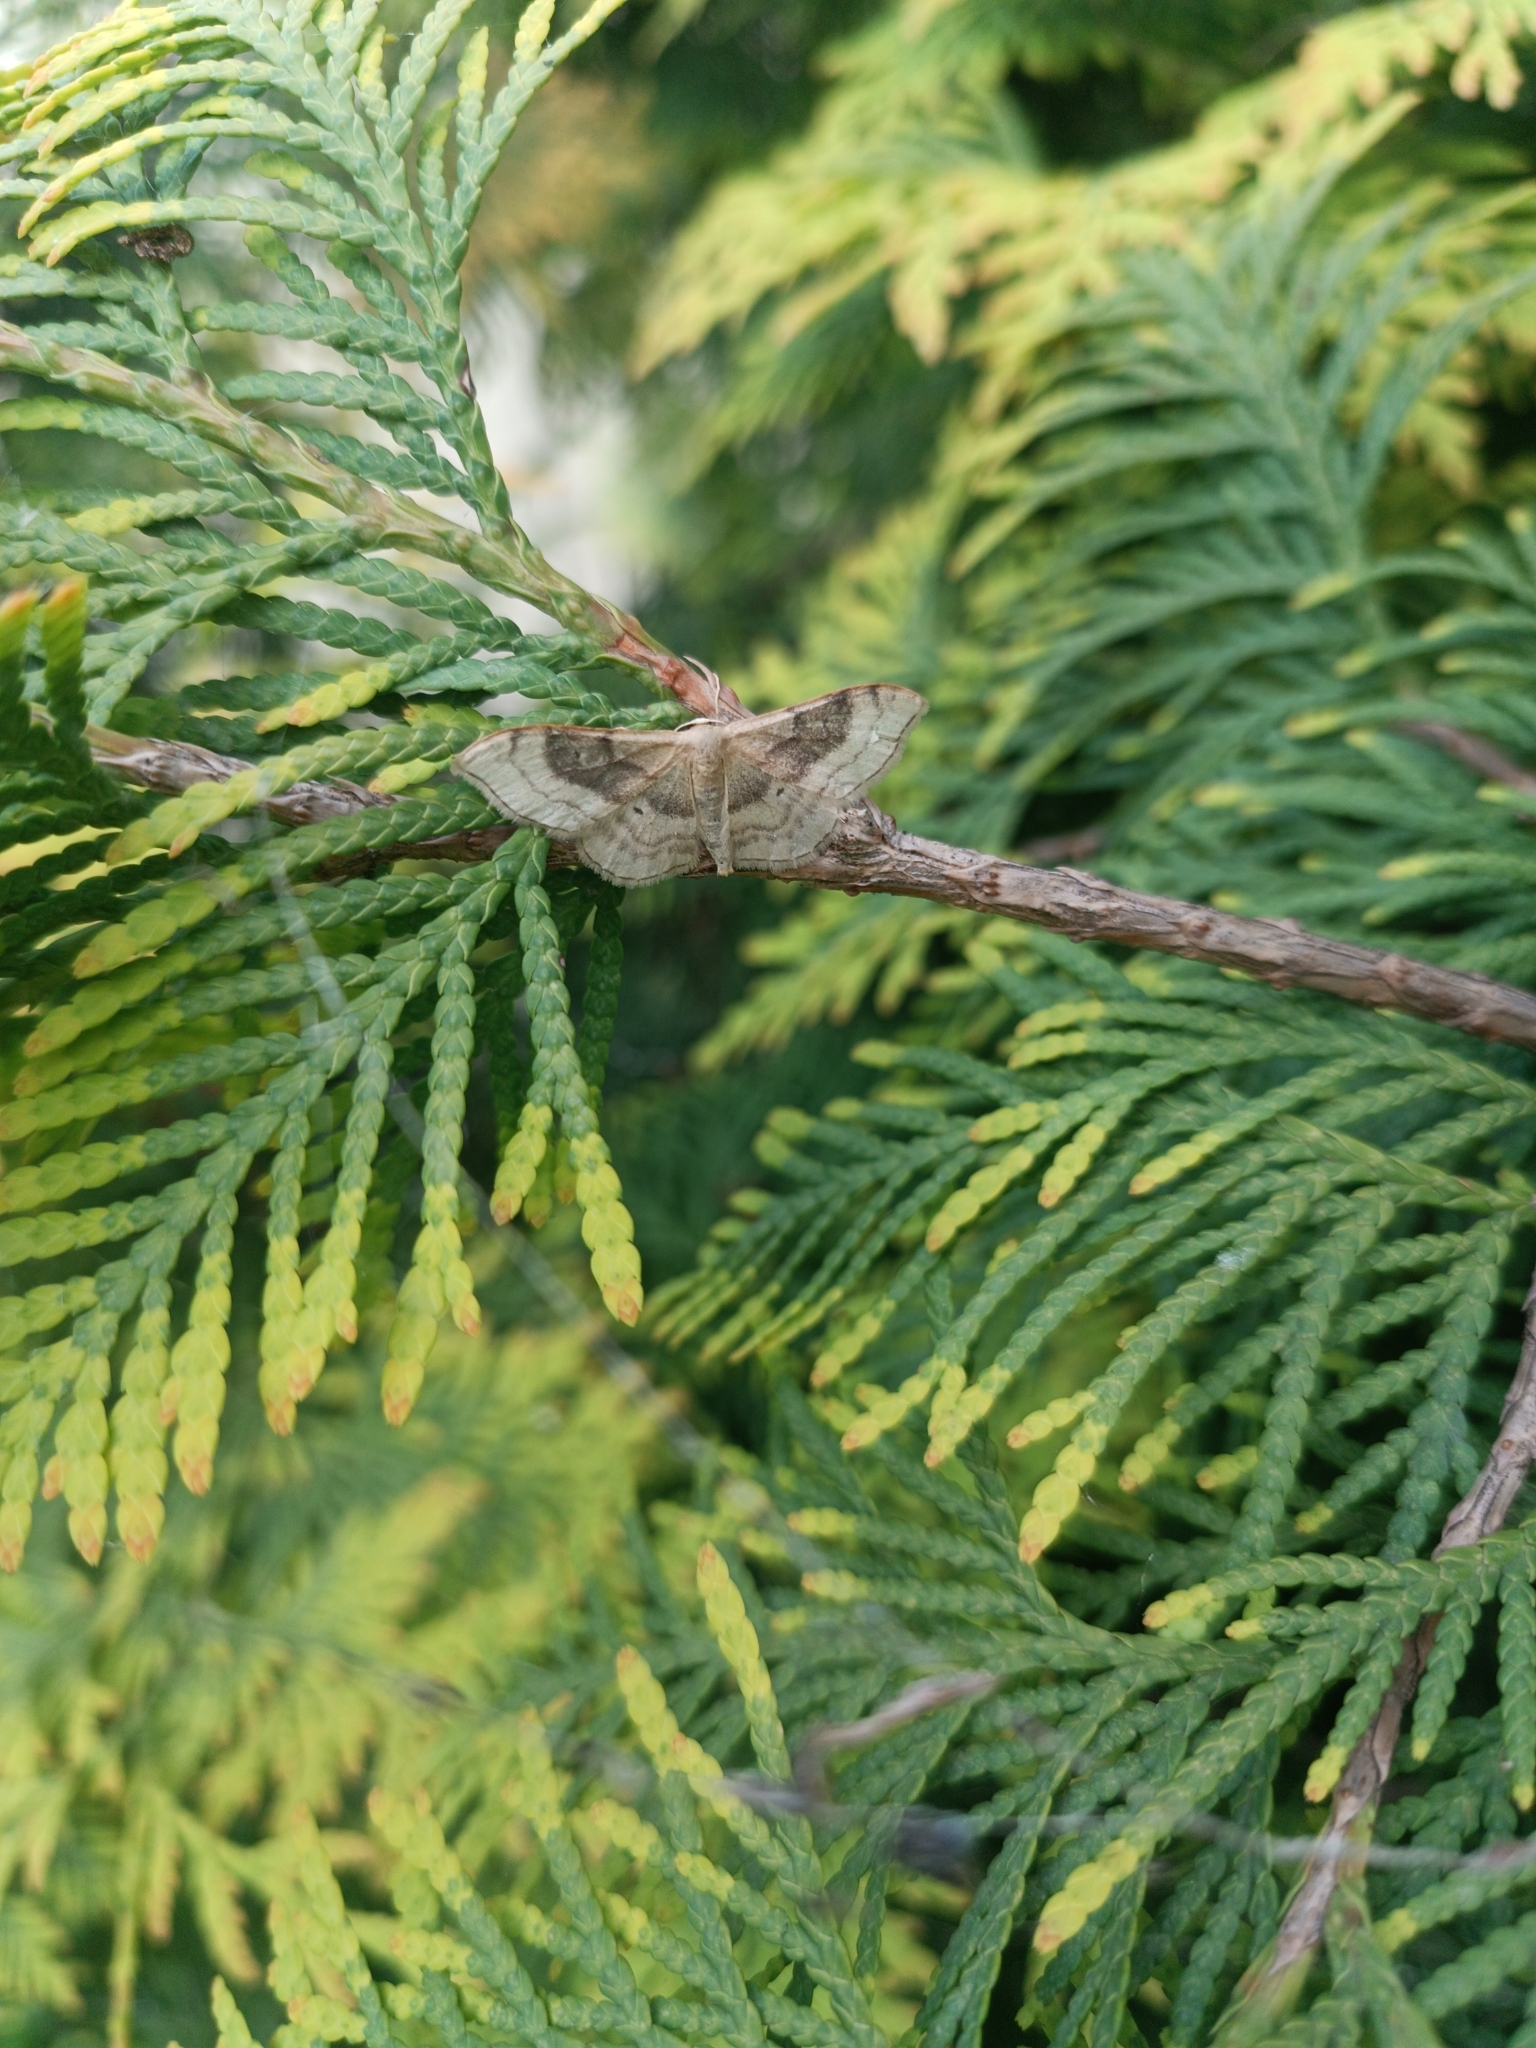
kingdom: Animalia
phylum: Arthropoda
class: Insecta
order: Lepidoptera
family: Geometridae
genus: Idaea
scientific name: Idaea degeneraria
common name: Portland ribbon wave
